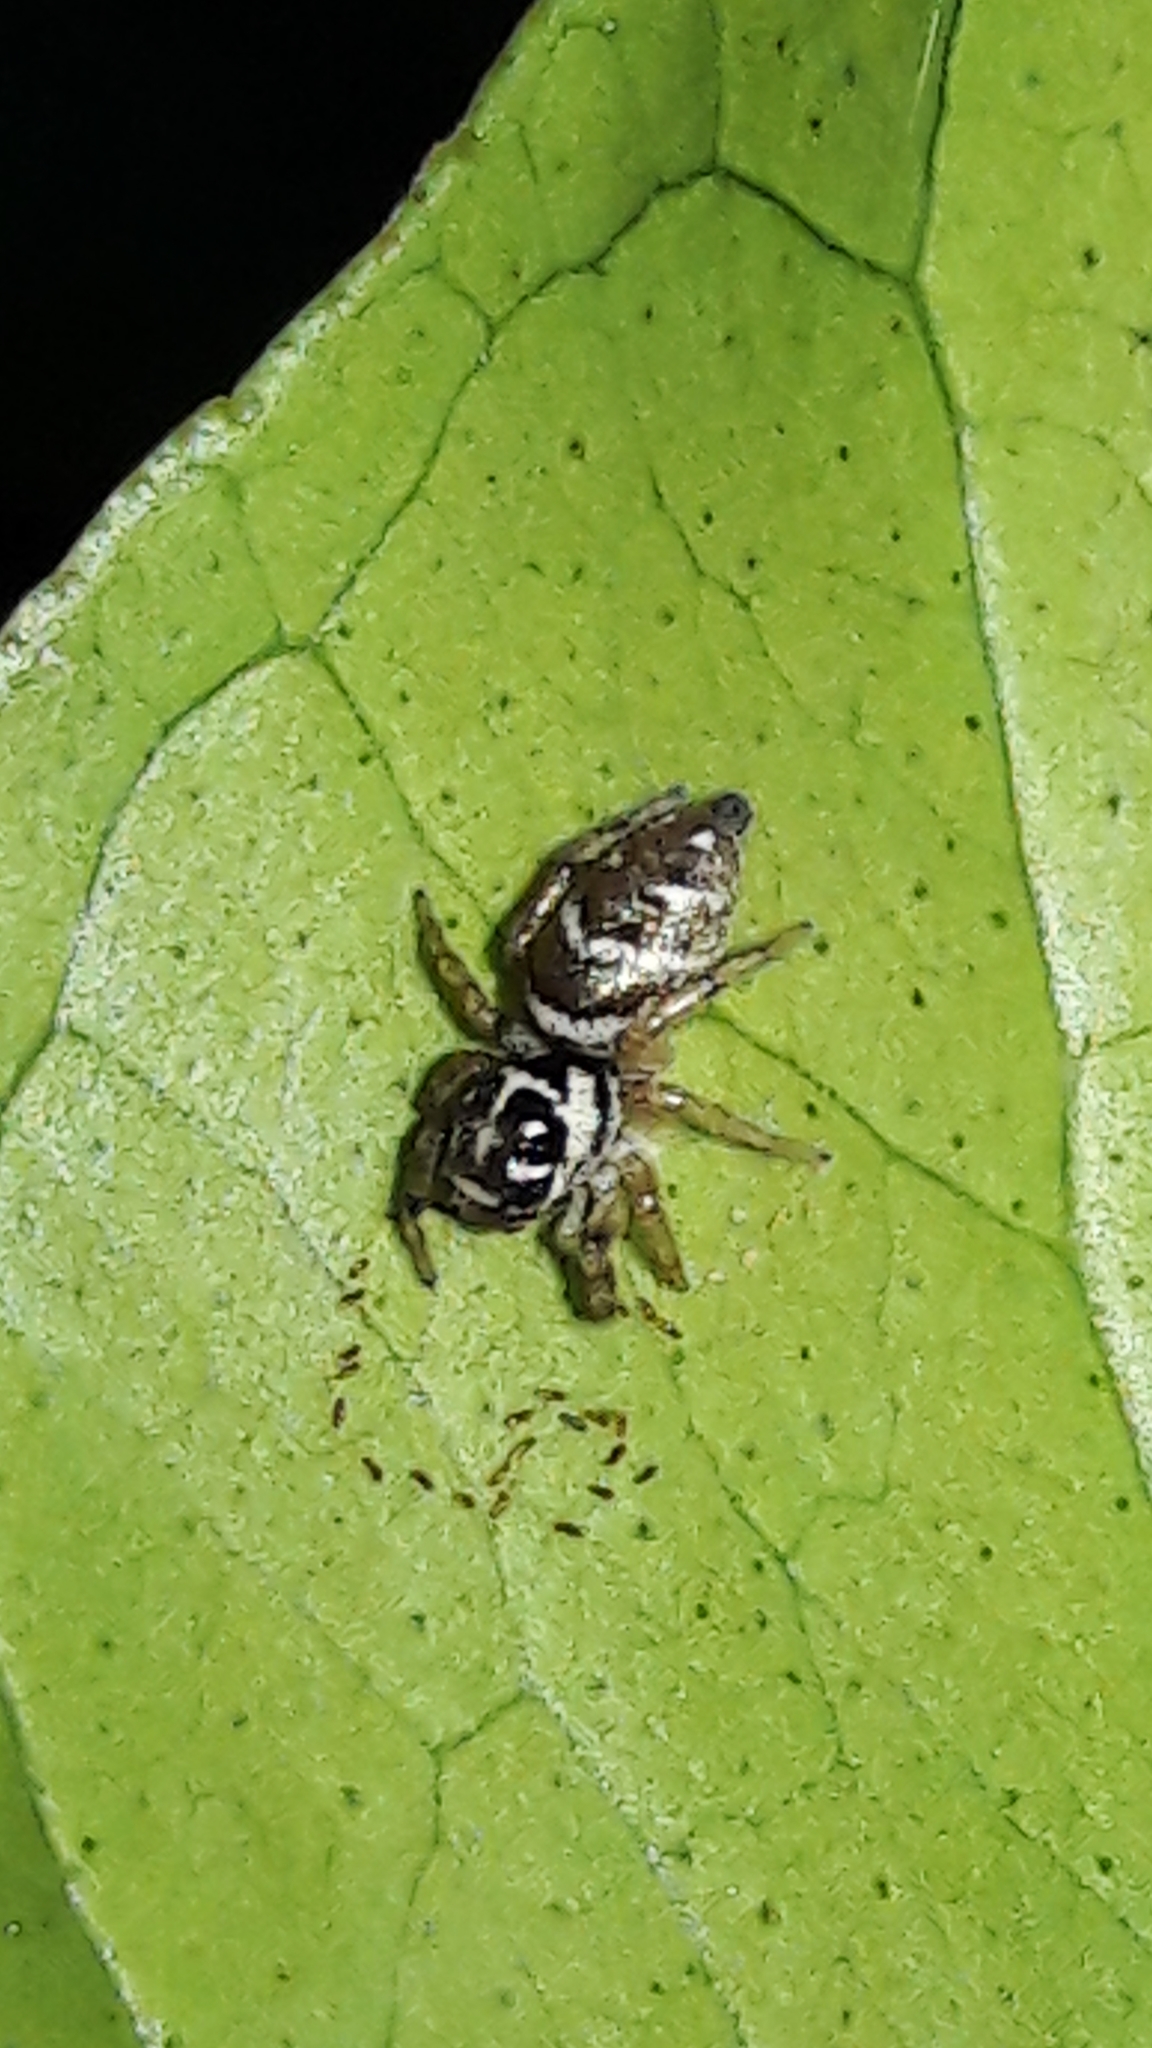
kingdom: Animalia
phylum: Arthropoda
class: Arachnida
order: Araneae
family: Salticidae
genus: Philira
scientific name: Philira micans
